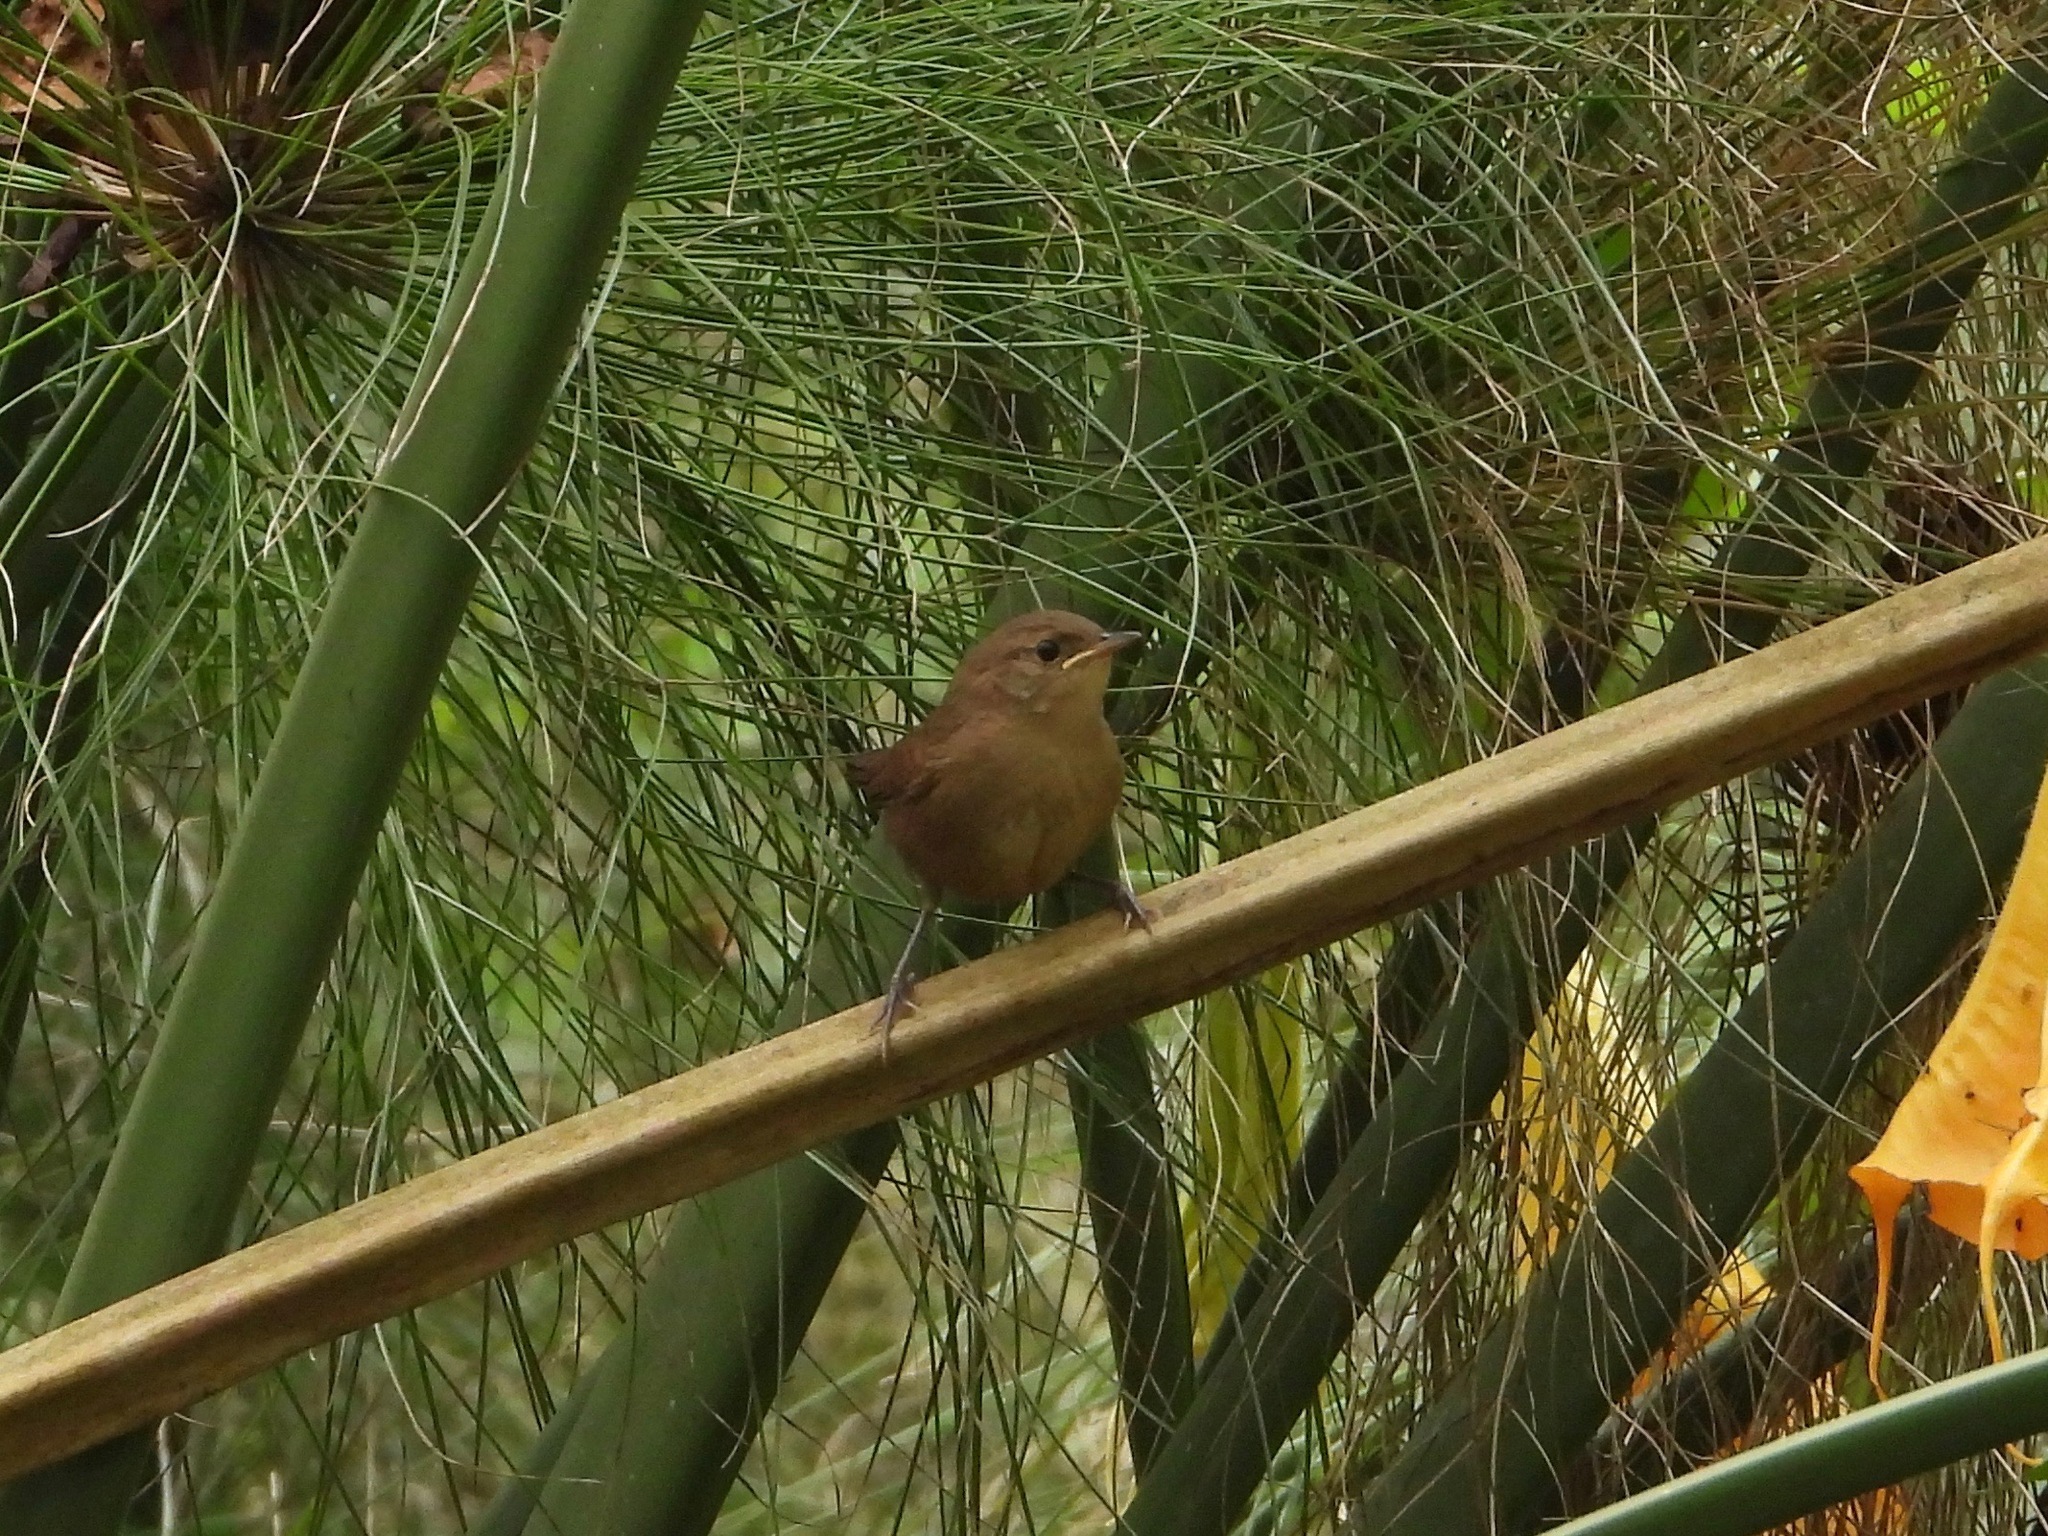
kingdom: Animalia
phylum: Chordata
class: Aves
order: Passeriformes
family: Troglodytidae
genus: Troglodytes
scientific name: Troglodytes aedon
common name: House wren
